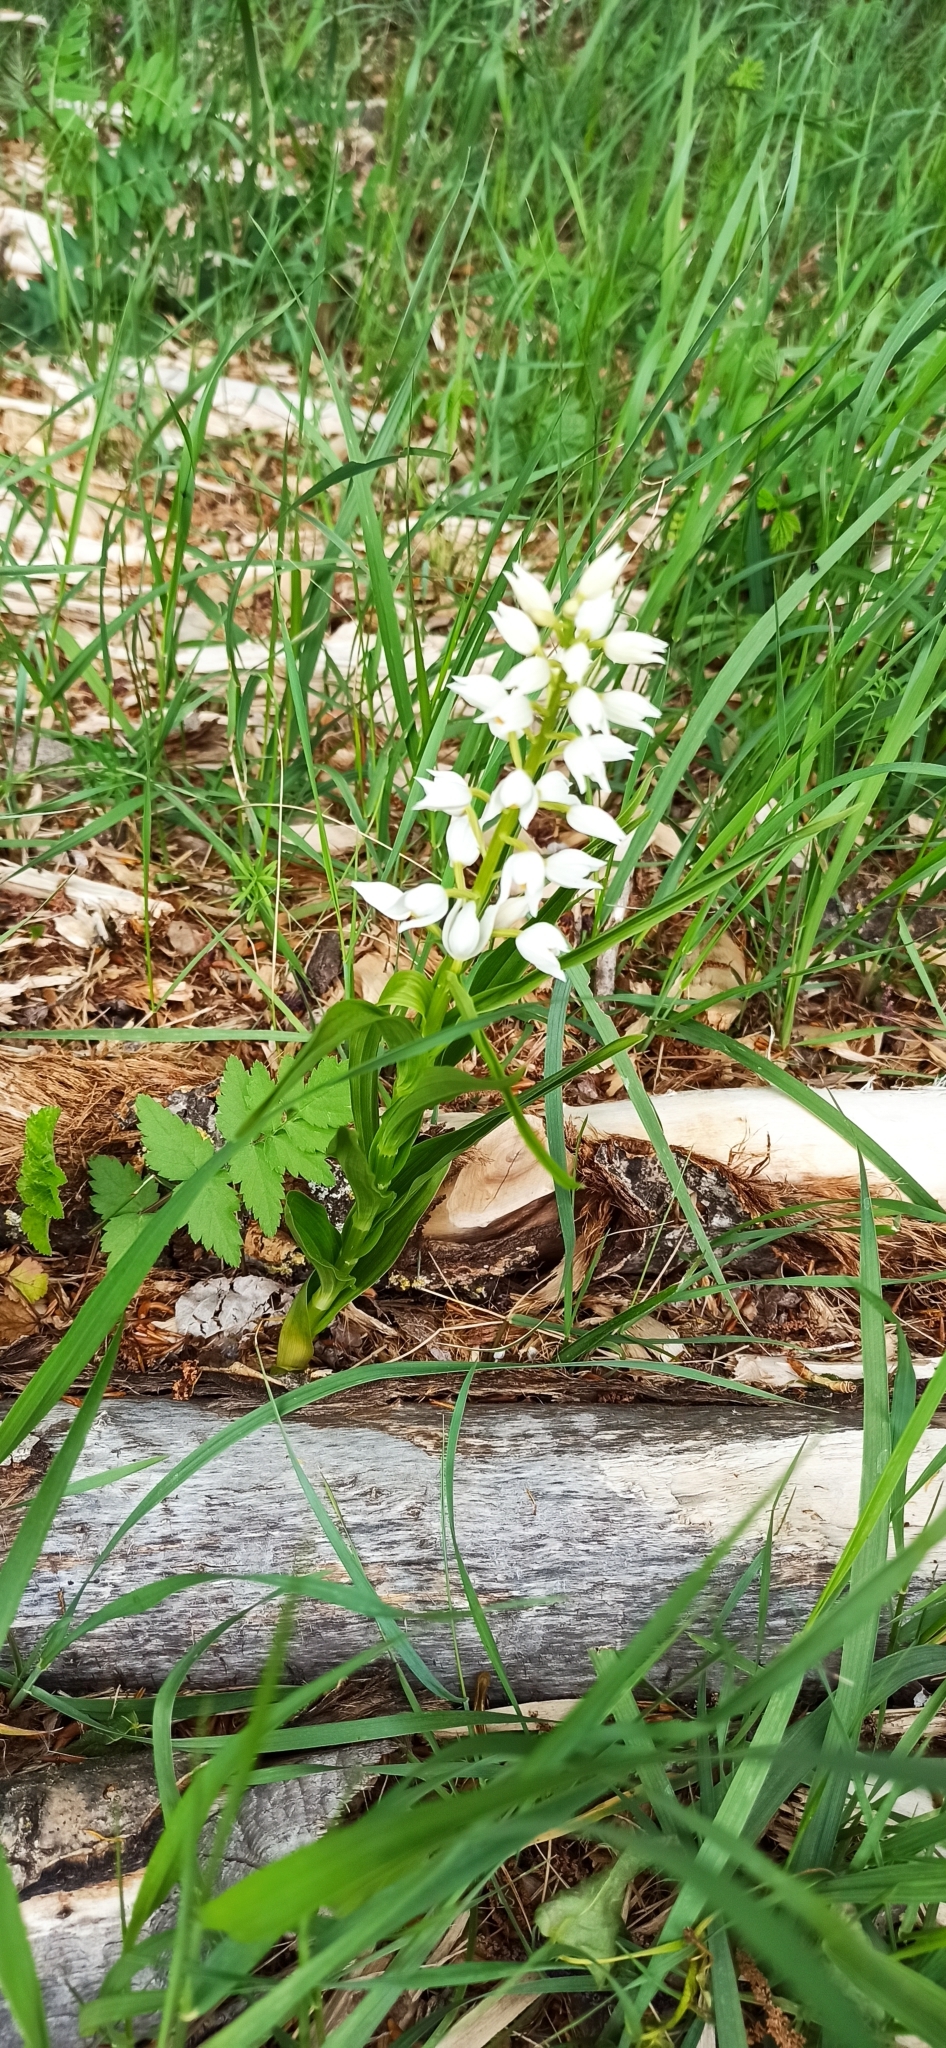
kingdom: Plantae
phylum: Tracheophyta
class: Liliopsida
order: Asparagales
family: Orchidaceae
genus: Cephalanthera
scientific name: Cephalanthera longifolia
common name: Narrow-leaved helleborine
